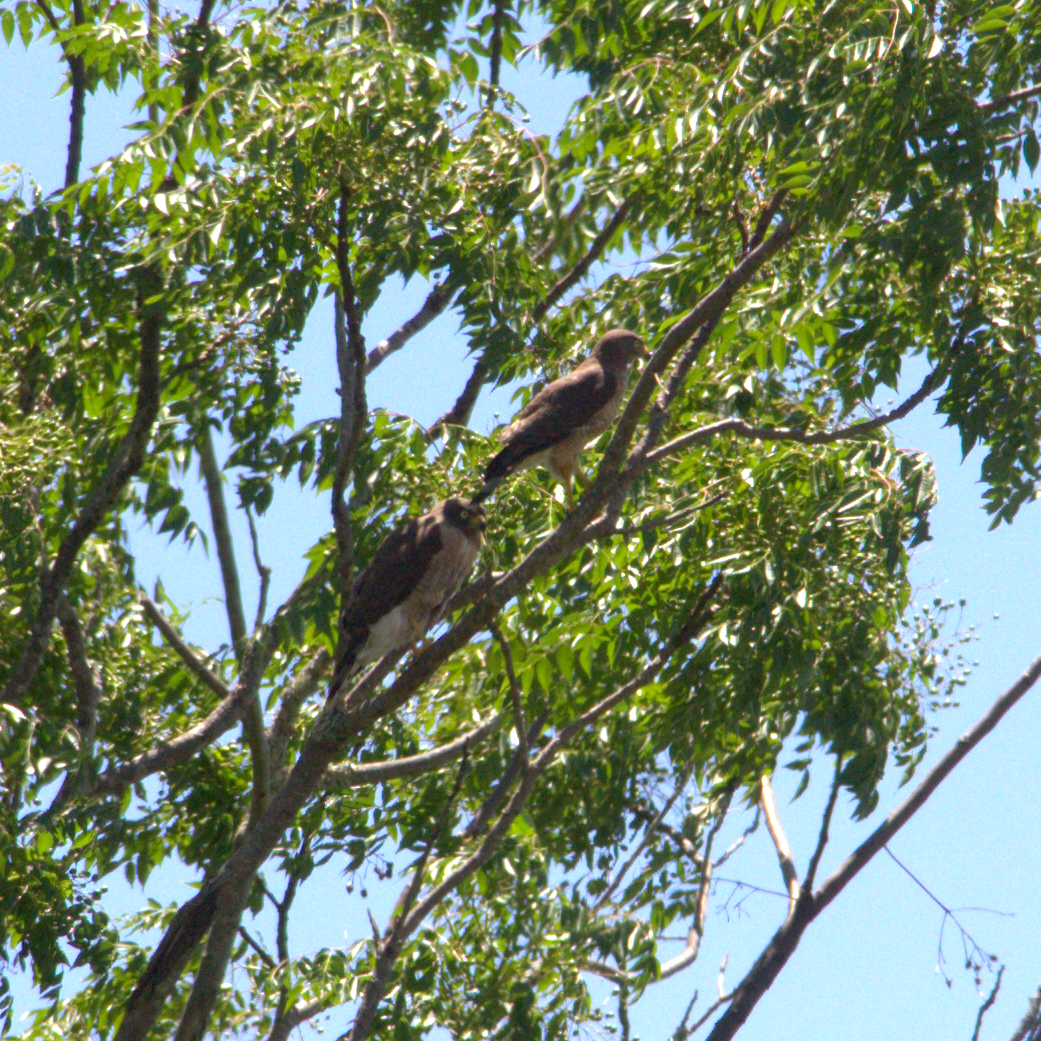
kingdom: Animalia
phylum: Chordata
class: Aves
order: Accipitriformes
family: Accipitridae
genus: Rupornis
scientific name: Rupornis magnirostris
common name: Roadside hawk
